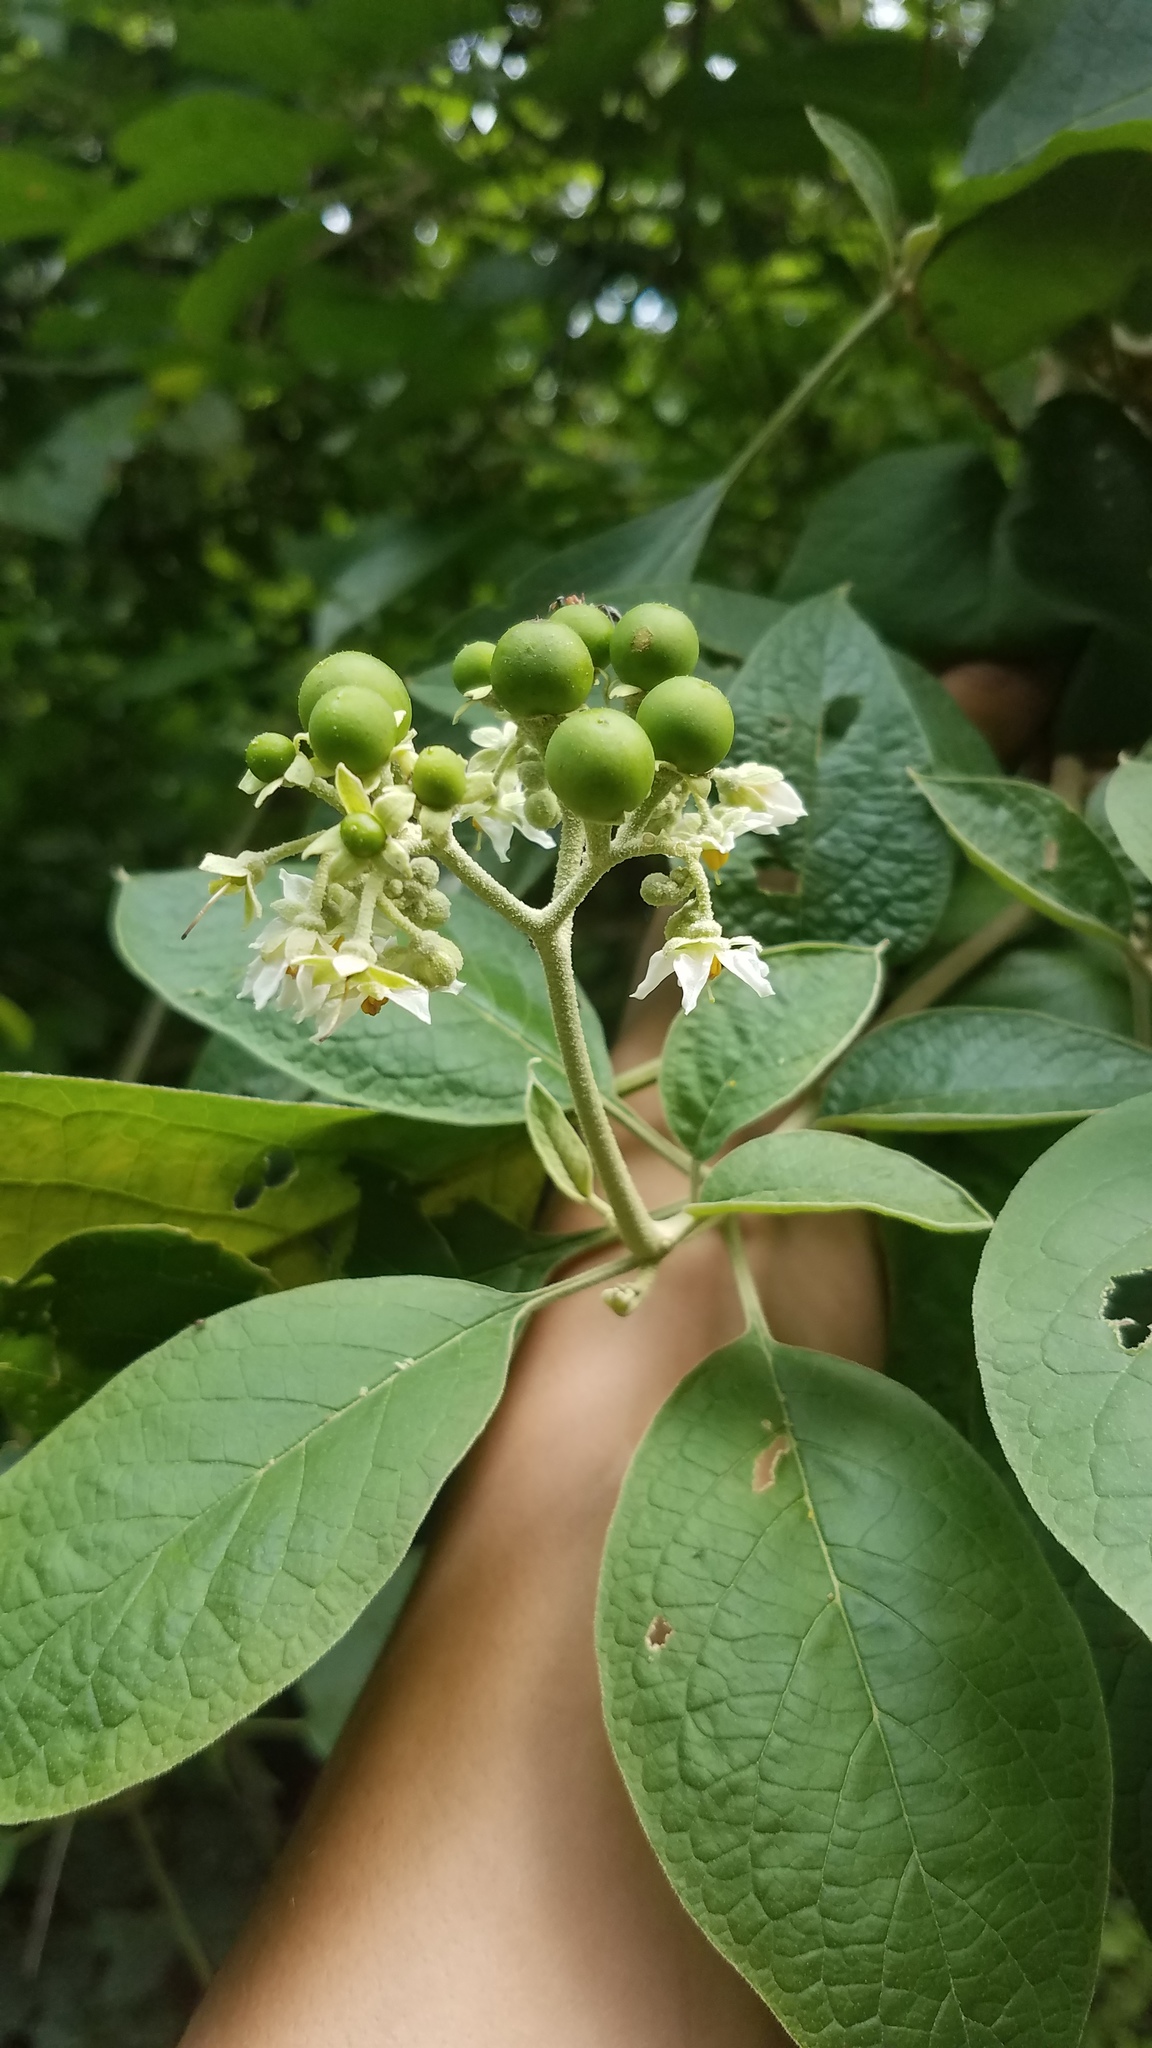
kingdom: Plantae
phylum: Tracheophyta
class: Magnoliopsida
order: Solanales
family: Solanaceae
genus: Solanum
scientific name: Solanum hazenii
